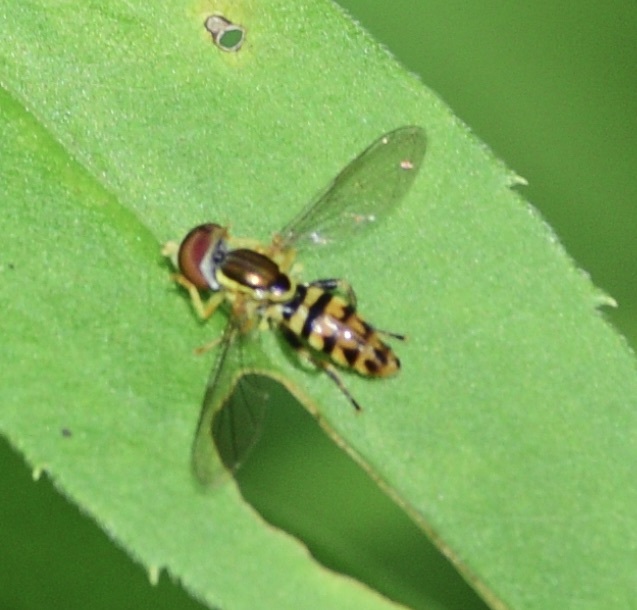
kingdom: Animalia
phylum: Arthropoda
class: Insecta
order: Diptera
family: Syrphidae
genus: Toxomerus
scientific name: Toxomerus geminatus
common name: Eastern calligrapher
